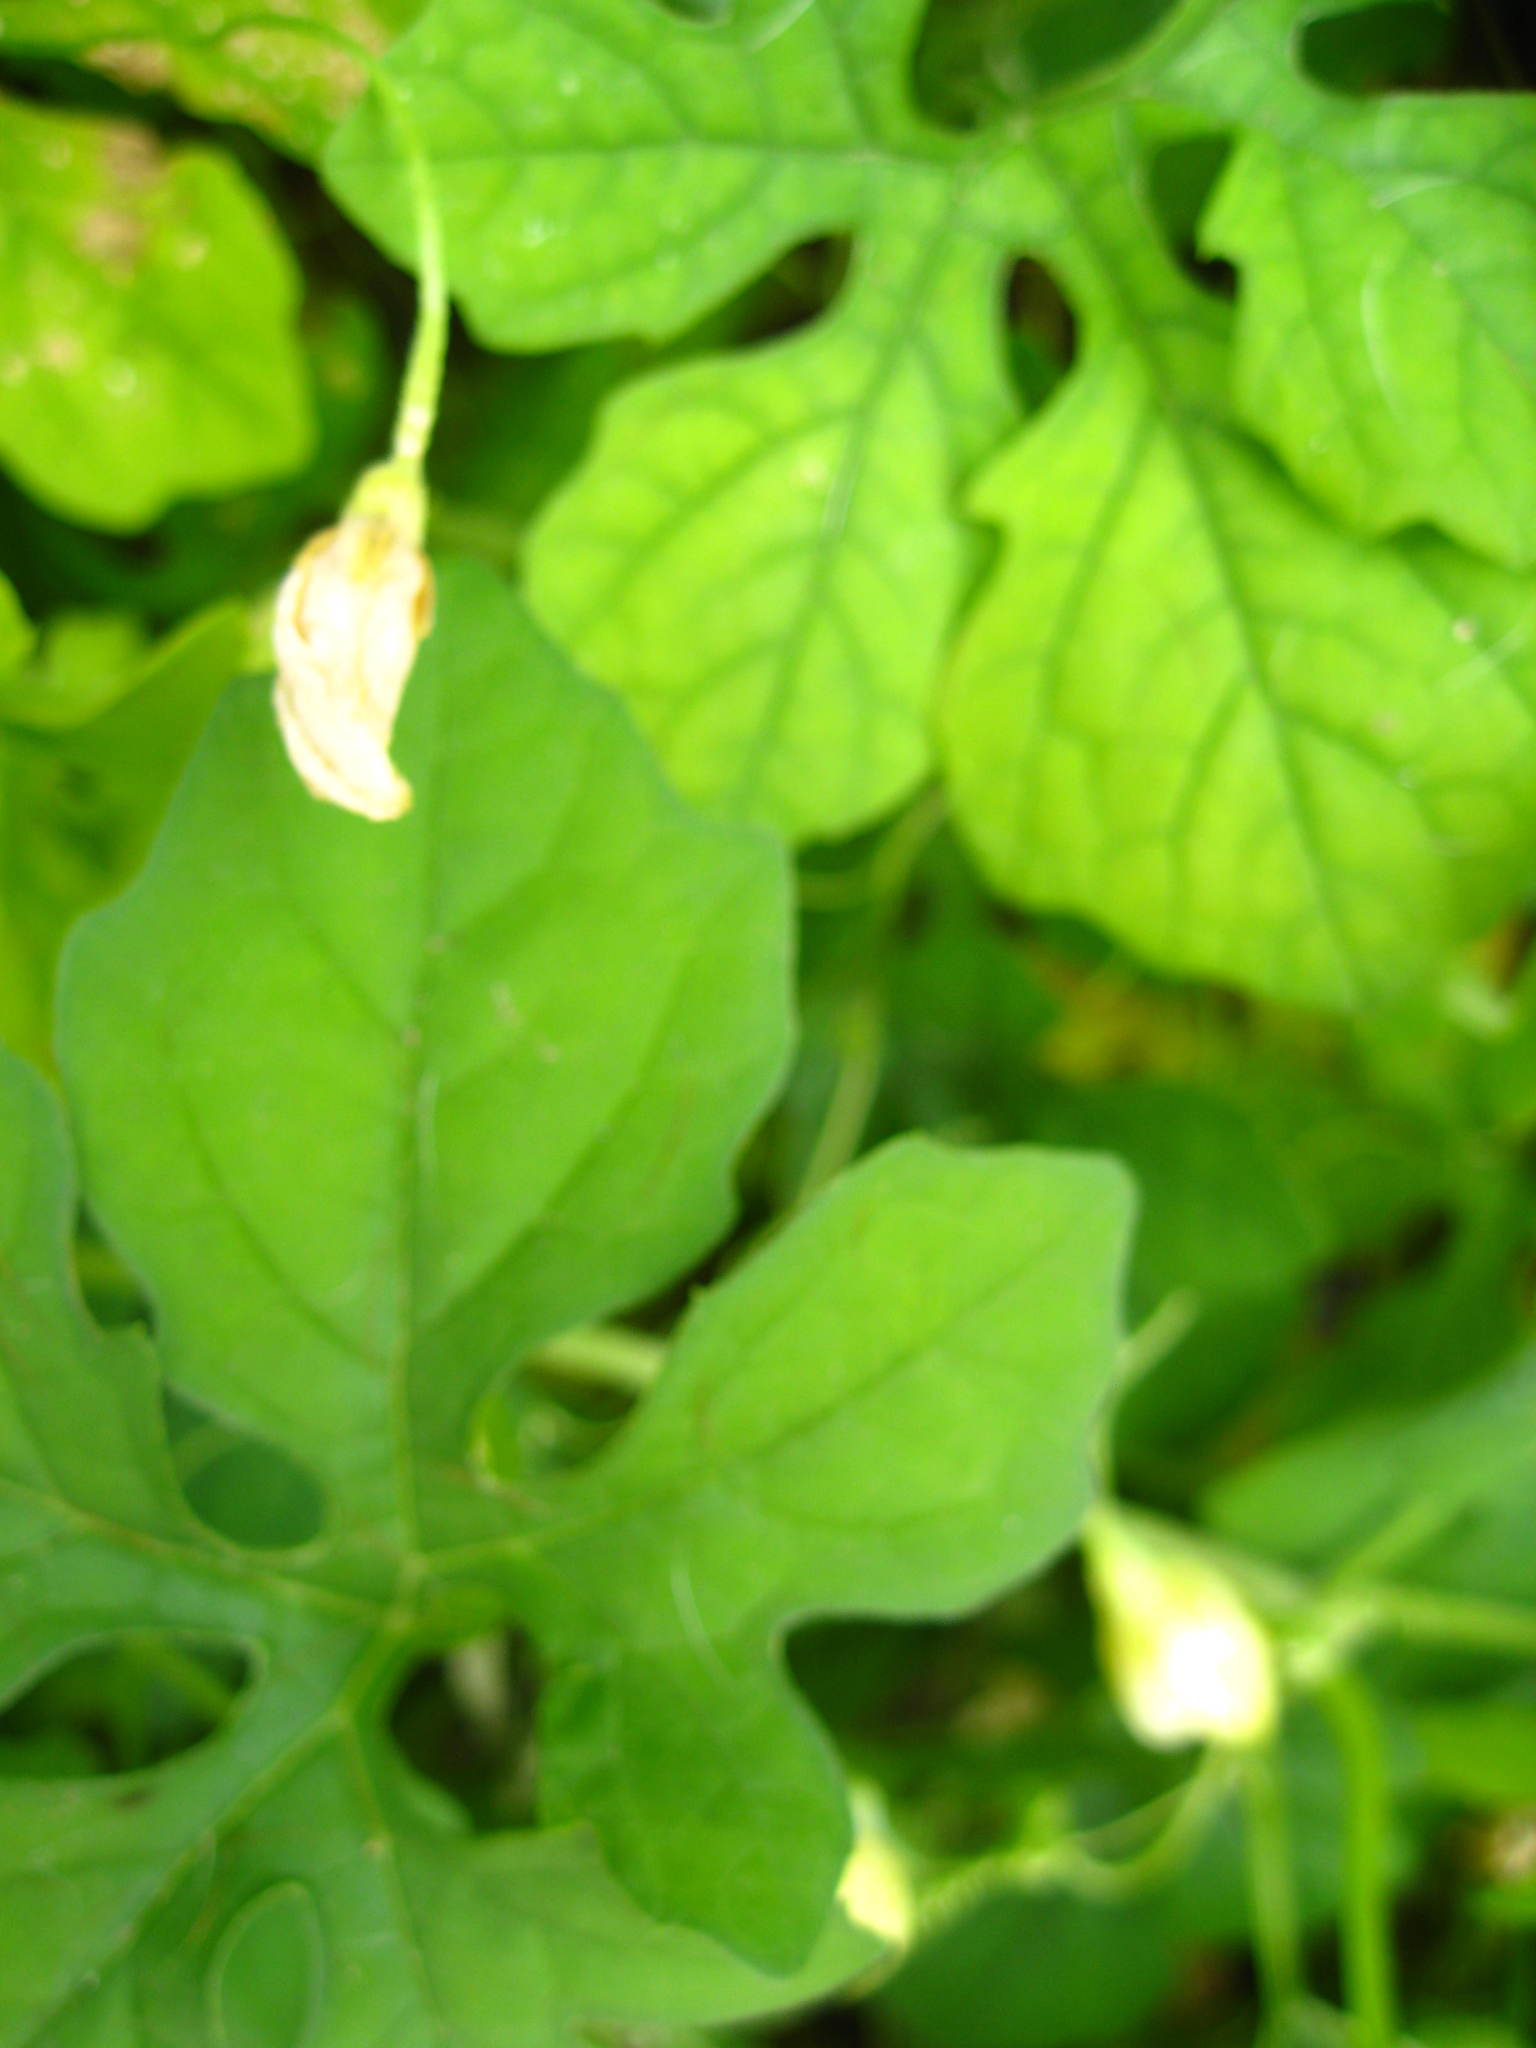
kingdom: Plantae
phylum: Tracheophyta
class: Magnoliopsida
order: Cucurbitales
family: Cucurbitaceae
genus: Momordica
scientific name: Momordica charantia
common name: Balsampear
